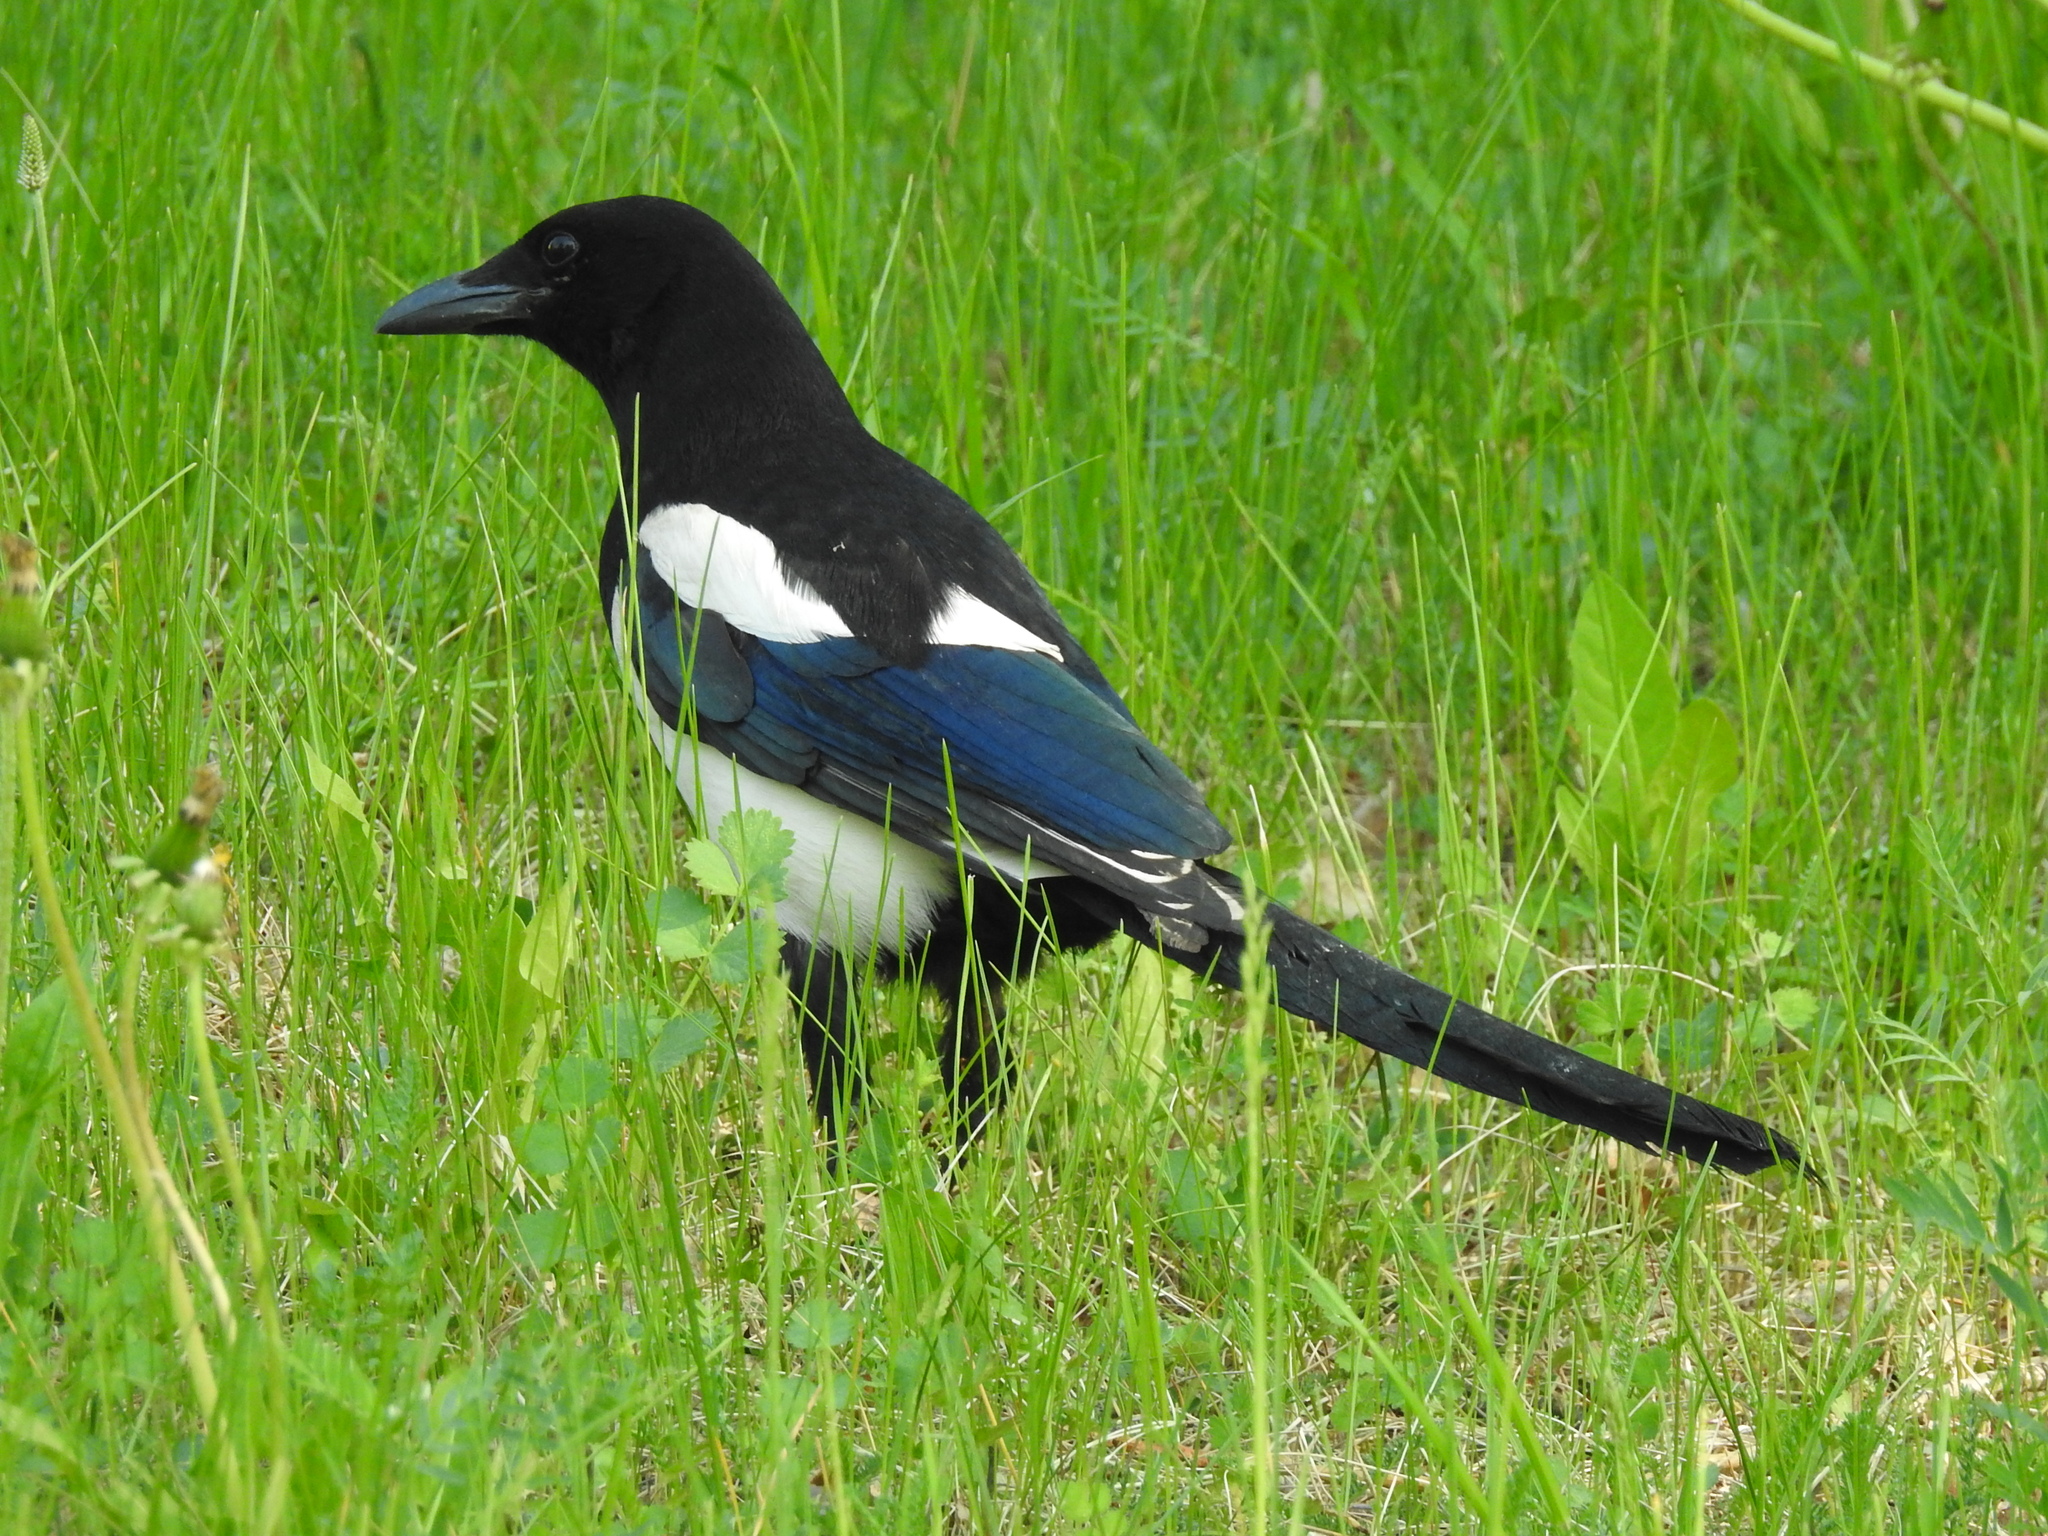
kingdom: Animalia
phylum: Chordata
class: Aves
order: Passeriformes
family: Corvidae
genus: Pica
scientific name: Pica pica
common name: Eurasian magpie
